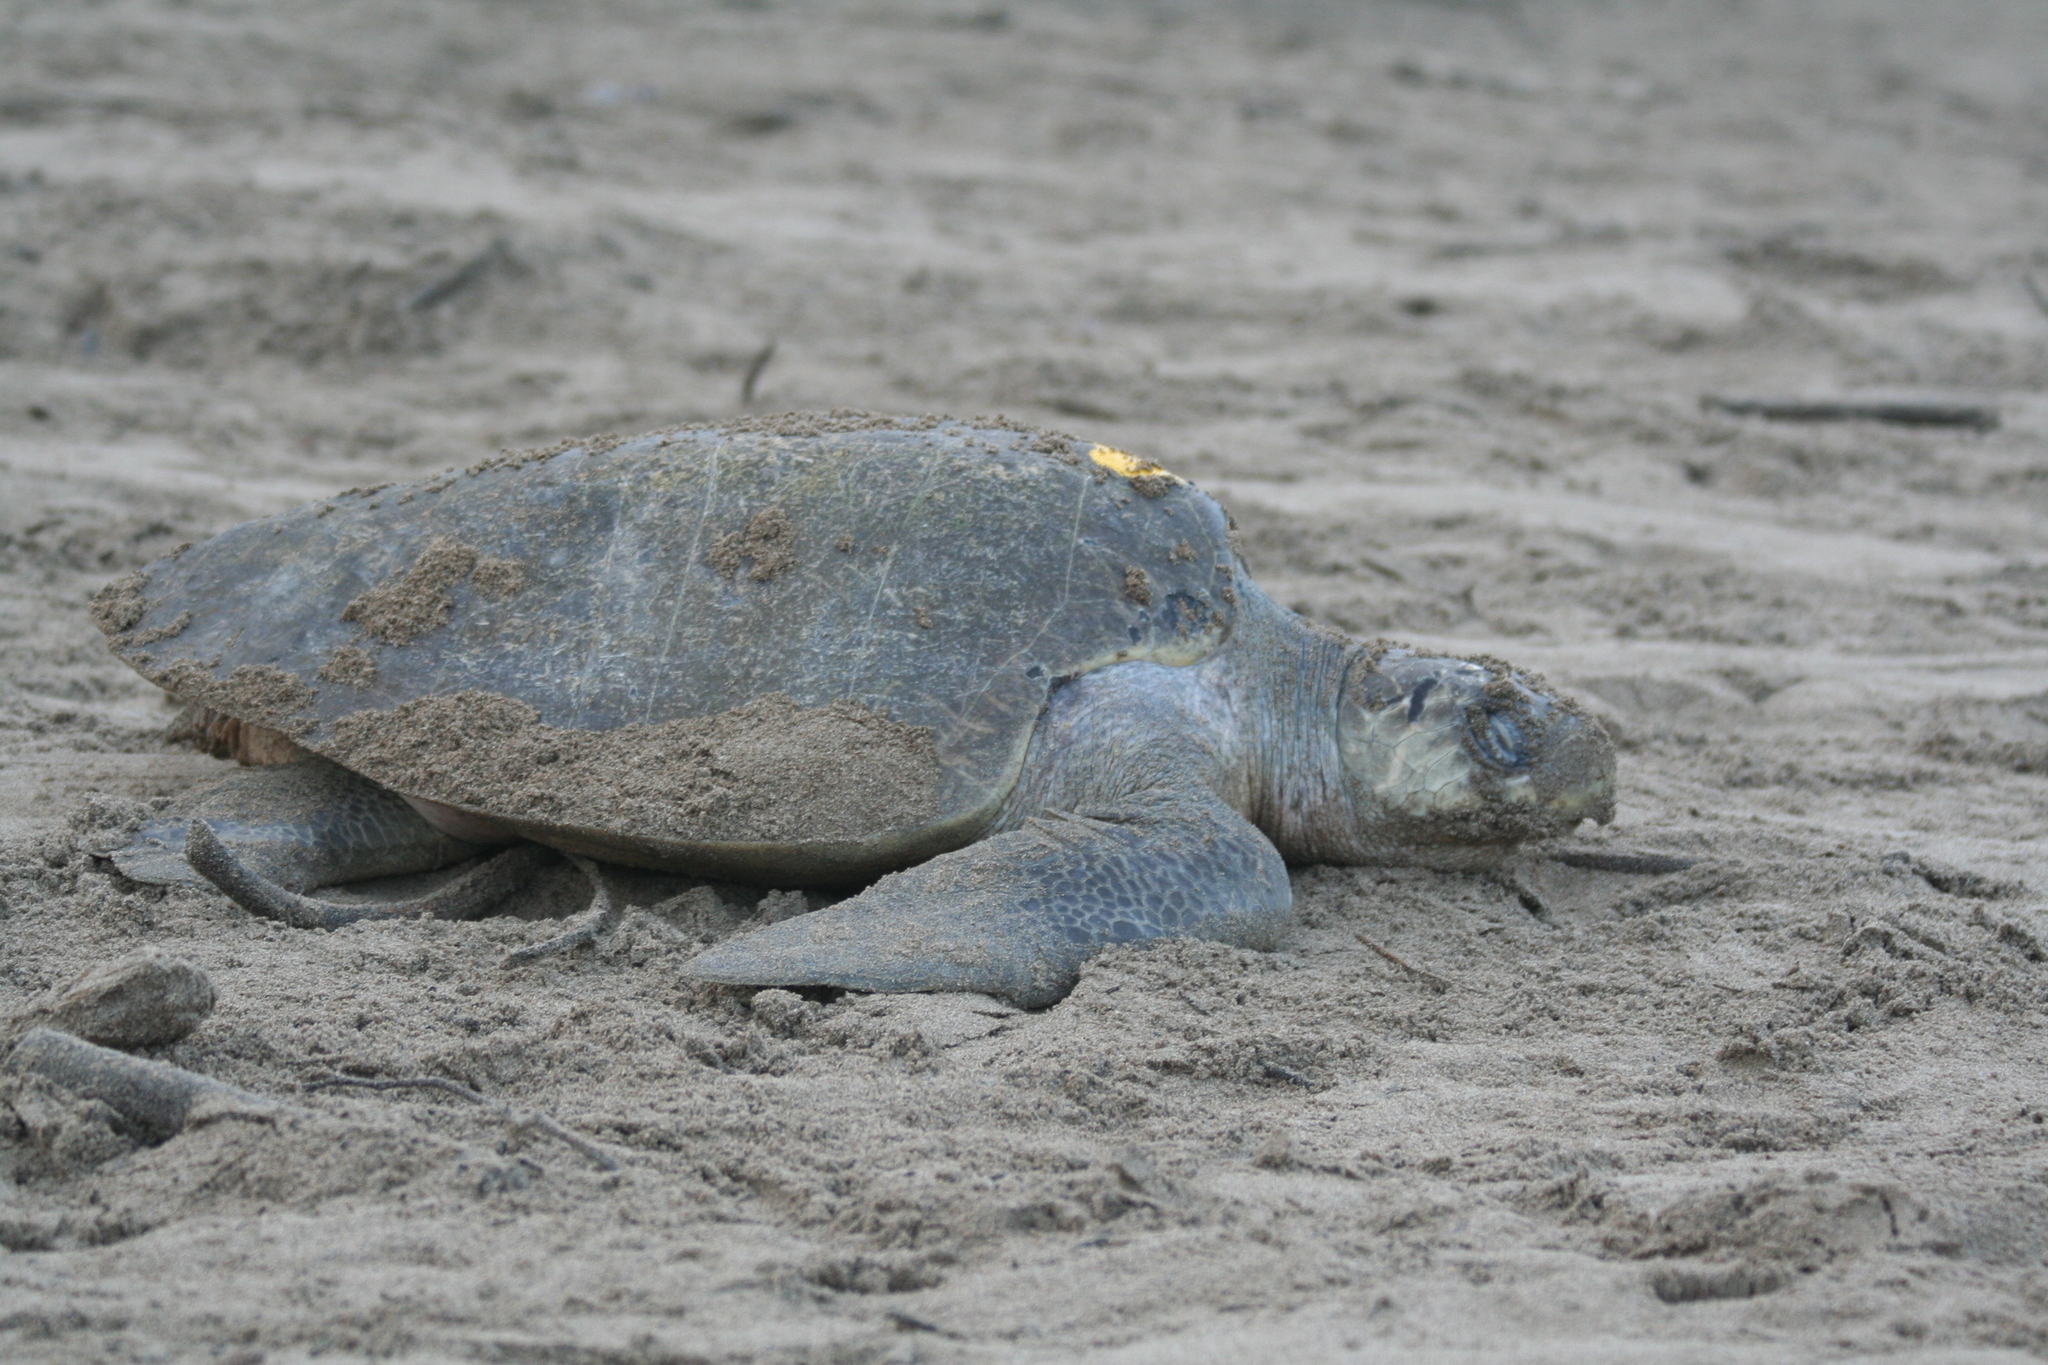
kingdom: Animalia
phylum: Chordata
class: Testudines
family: Cheloniidae
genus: Lepidochelys
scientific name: Lepidochelys olivacea
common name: Olive ridley
